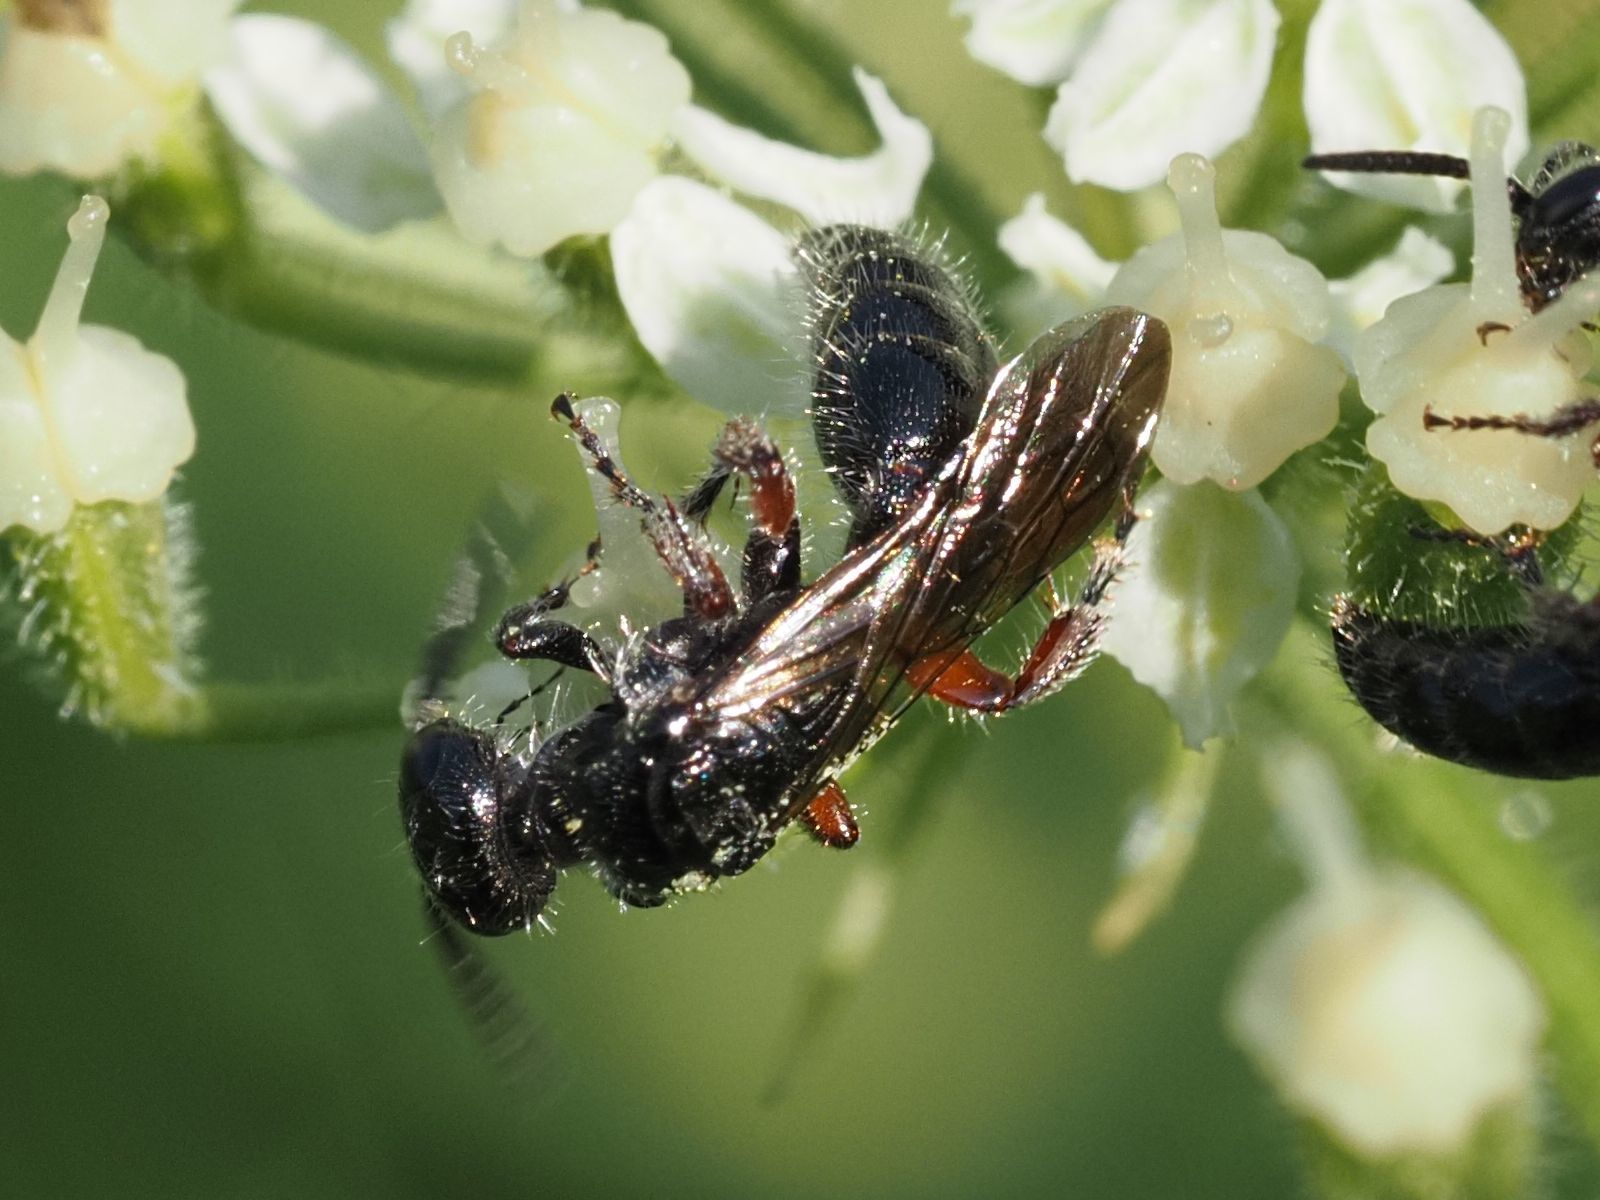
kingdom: Animalia
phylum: Arthropoda
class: Insecta
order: Hymenoptera
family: Tiphiidae
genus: Tiphia
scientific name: Tiphia femorata
